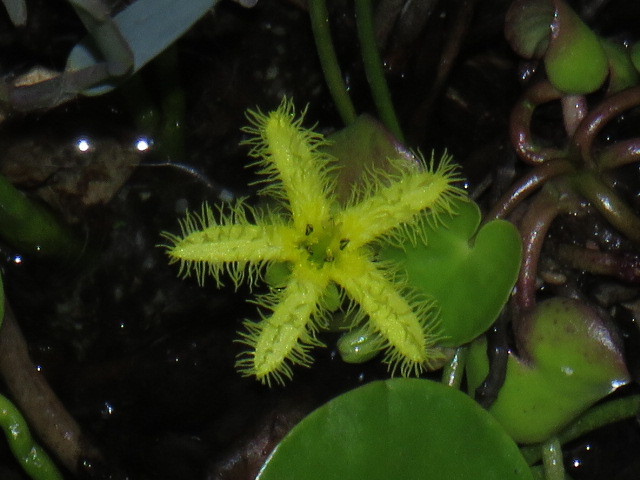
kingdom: Plantae
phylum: Tracheophyta
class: Magnoliopsida
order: Asterales
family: Menyanthaceae
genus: Nymphoides
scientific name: Nymphoides thunbergiana
